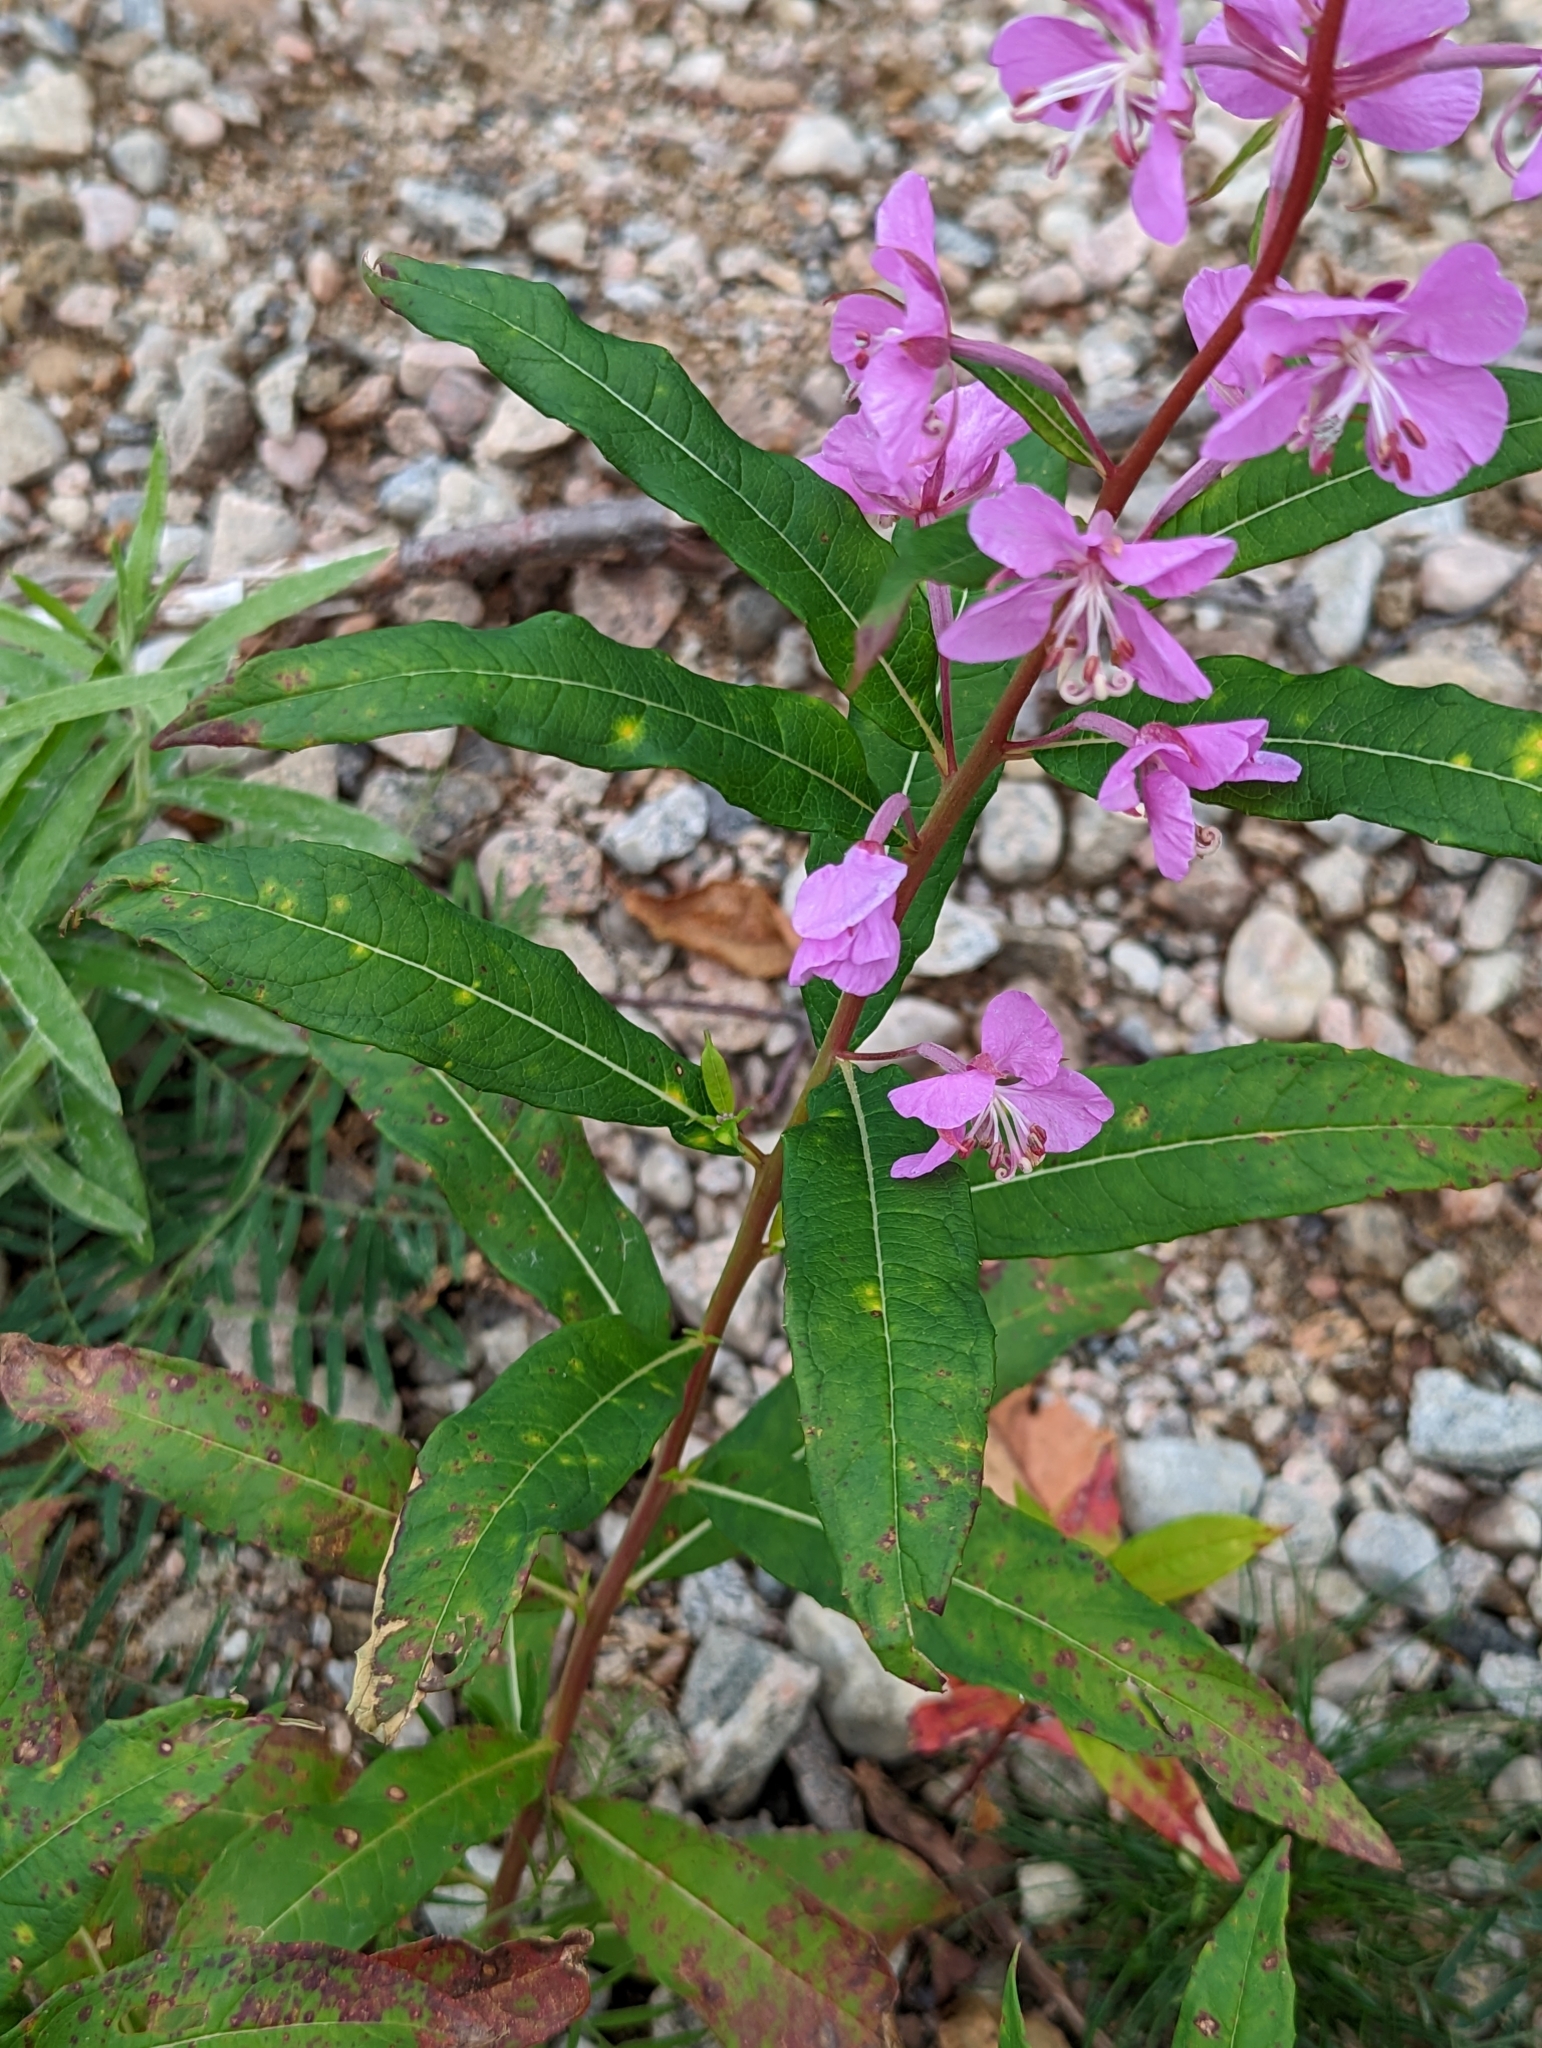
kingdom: Plantae
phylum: Tracheophyta
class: Magnoliopsida
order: Myrtales
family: Onagraceae
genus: Chamaenerion
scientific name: Chamaenerion angustifolium
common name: Fireweed
